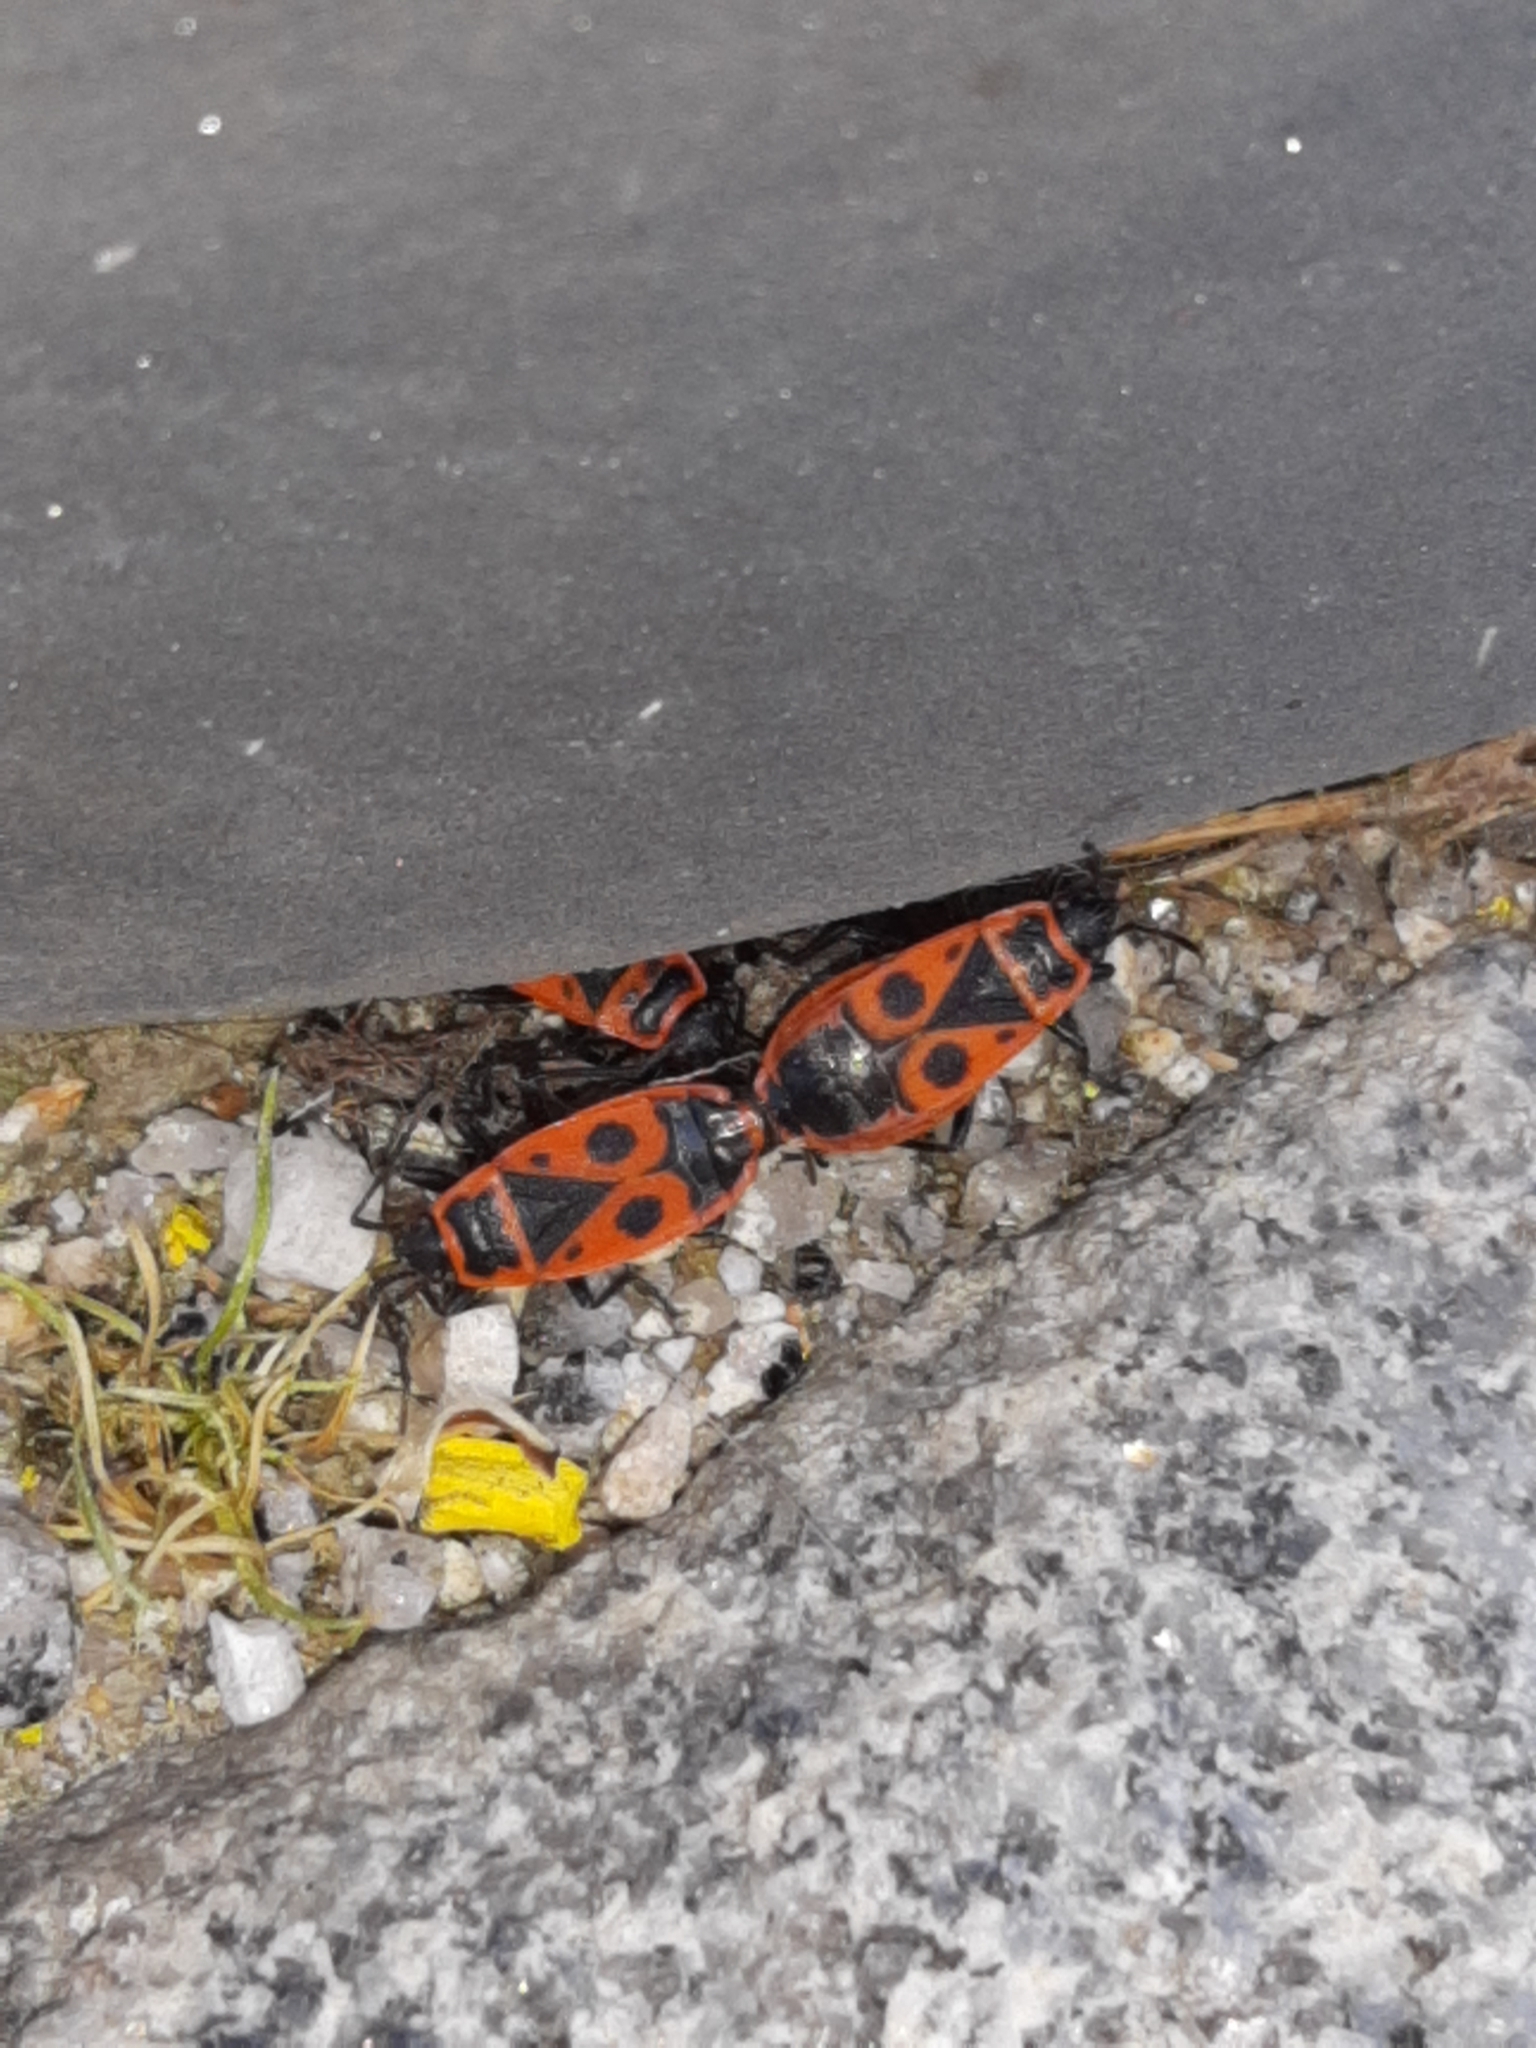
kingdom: Animalia
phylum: Arthropoda
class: Insecta
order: Hemiptera
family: Pyrrhocoridae
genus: Pyrrhocoris
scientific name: Pyrrhocoris apterus
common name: Firebug
